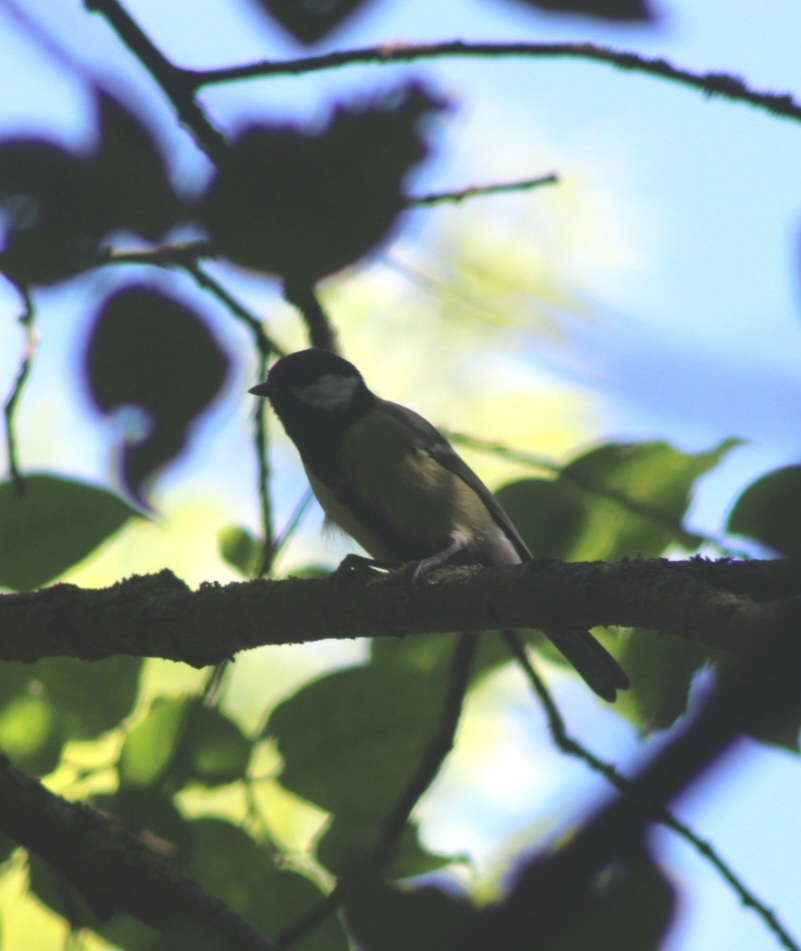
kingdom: Animalia
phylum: Chordata
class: Aves
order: Passeriformes
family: Paridae
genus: Parus
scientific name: Parus major
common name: Great tit
